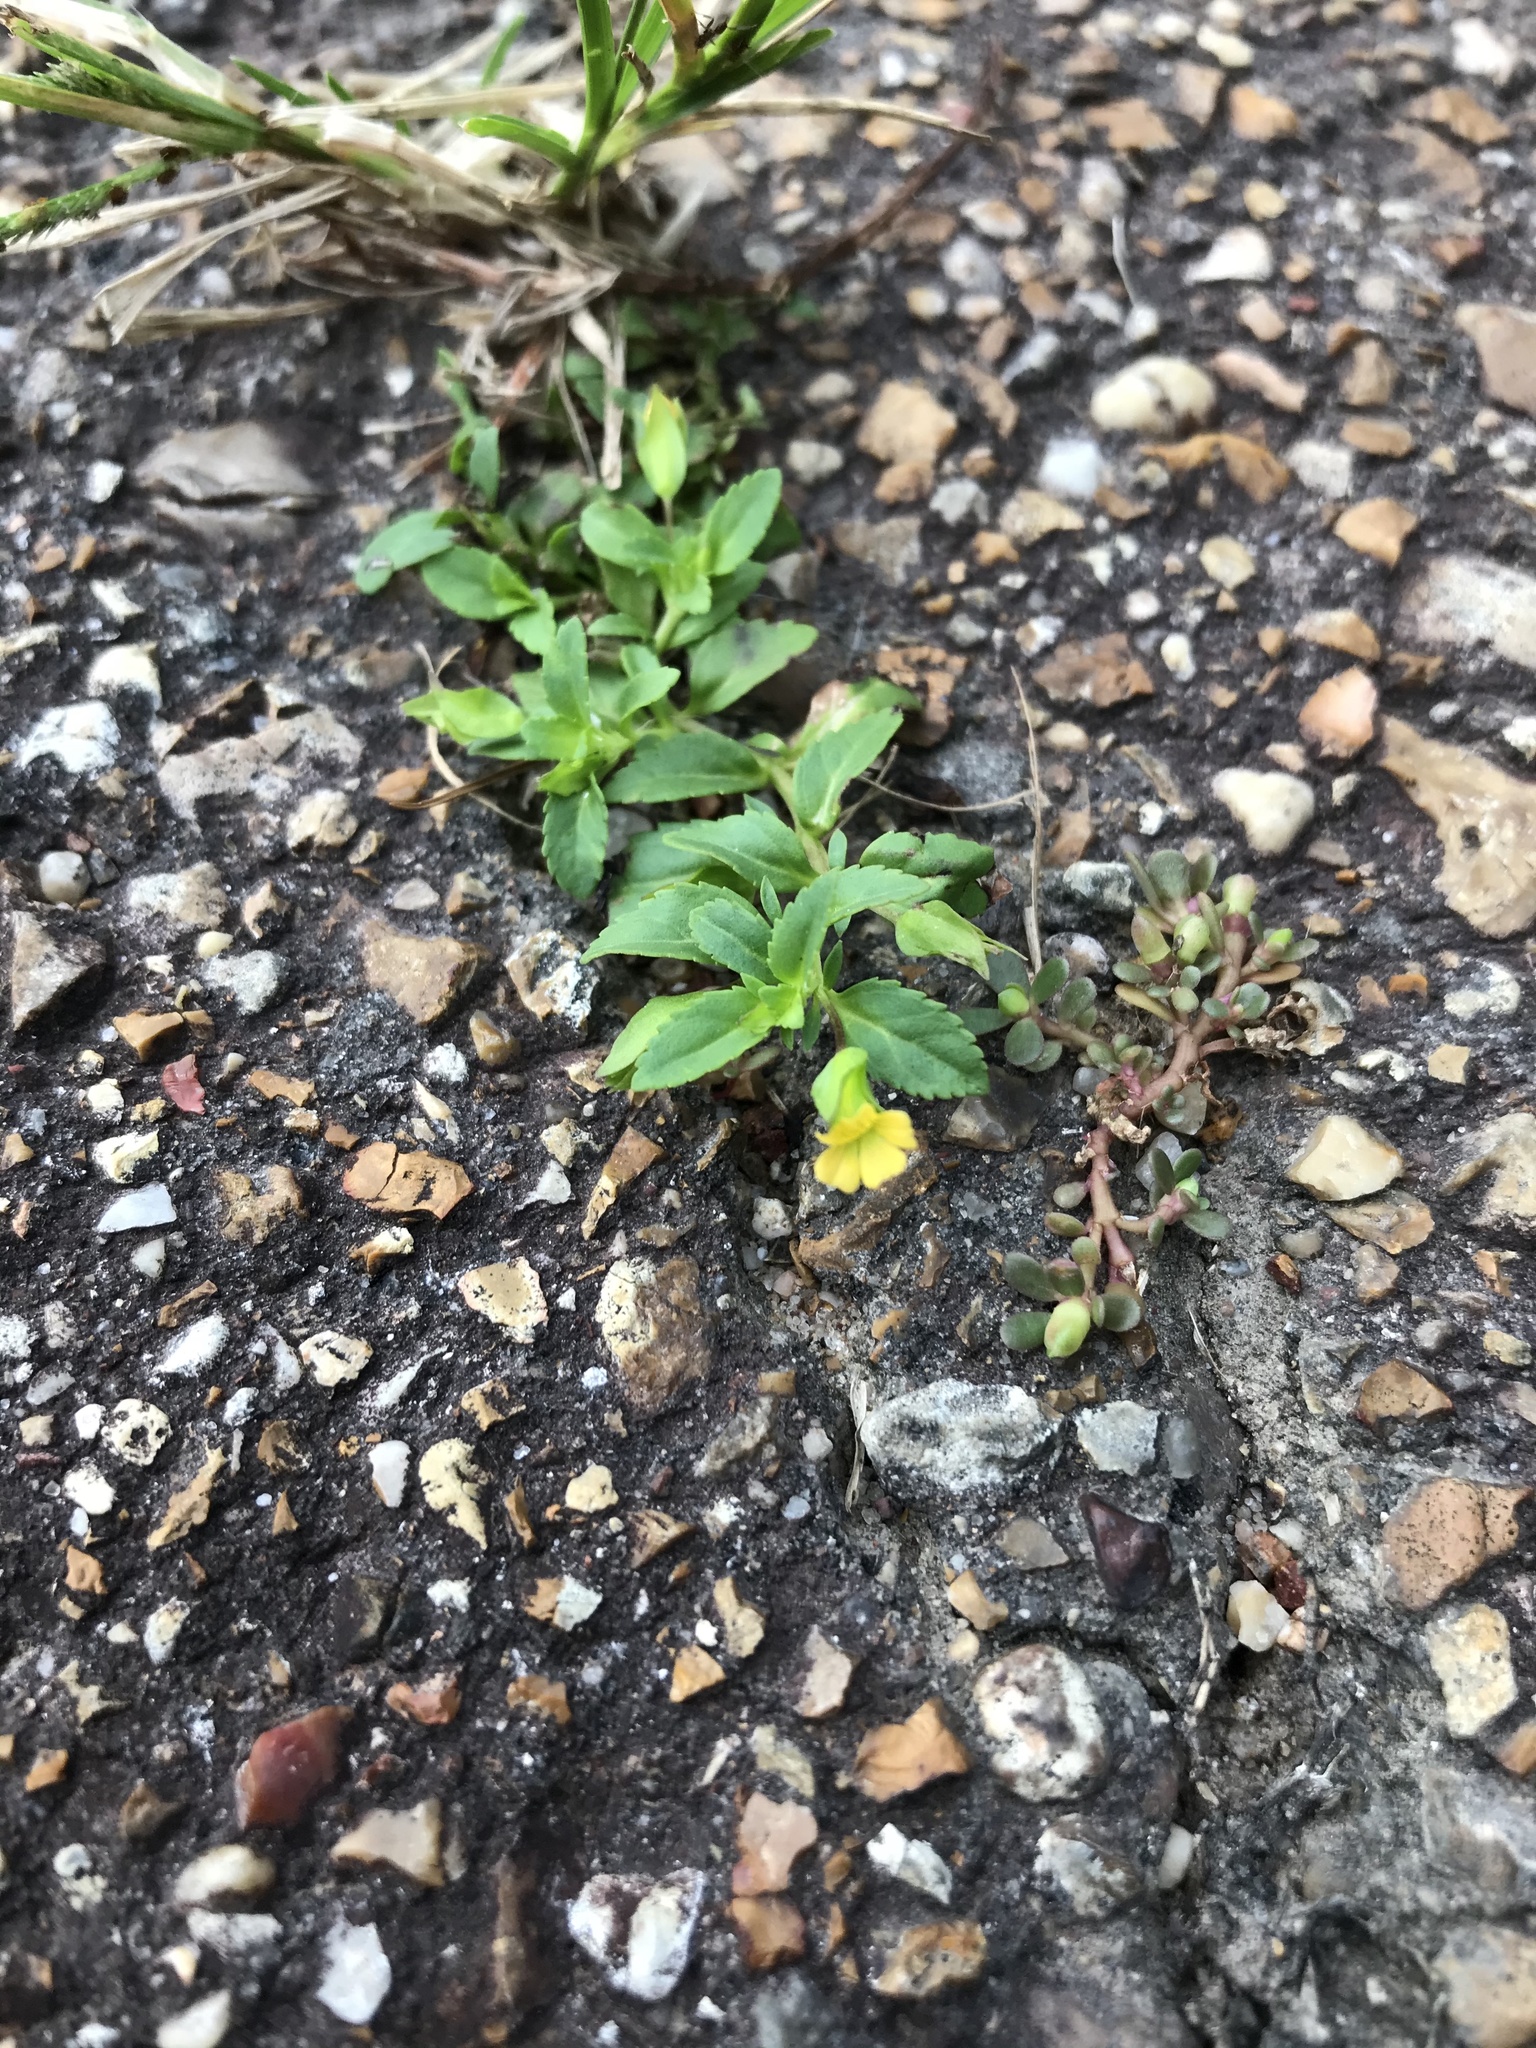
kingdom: Plantae
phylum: Tracheophyta
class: Magnoliopsida
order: Lamiales
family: Plantaginaceae
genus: Mecardonia
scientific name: Mecardonia procumbens
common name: Baby jump-up
